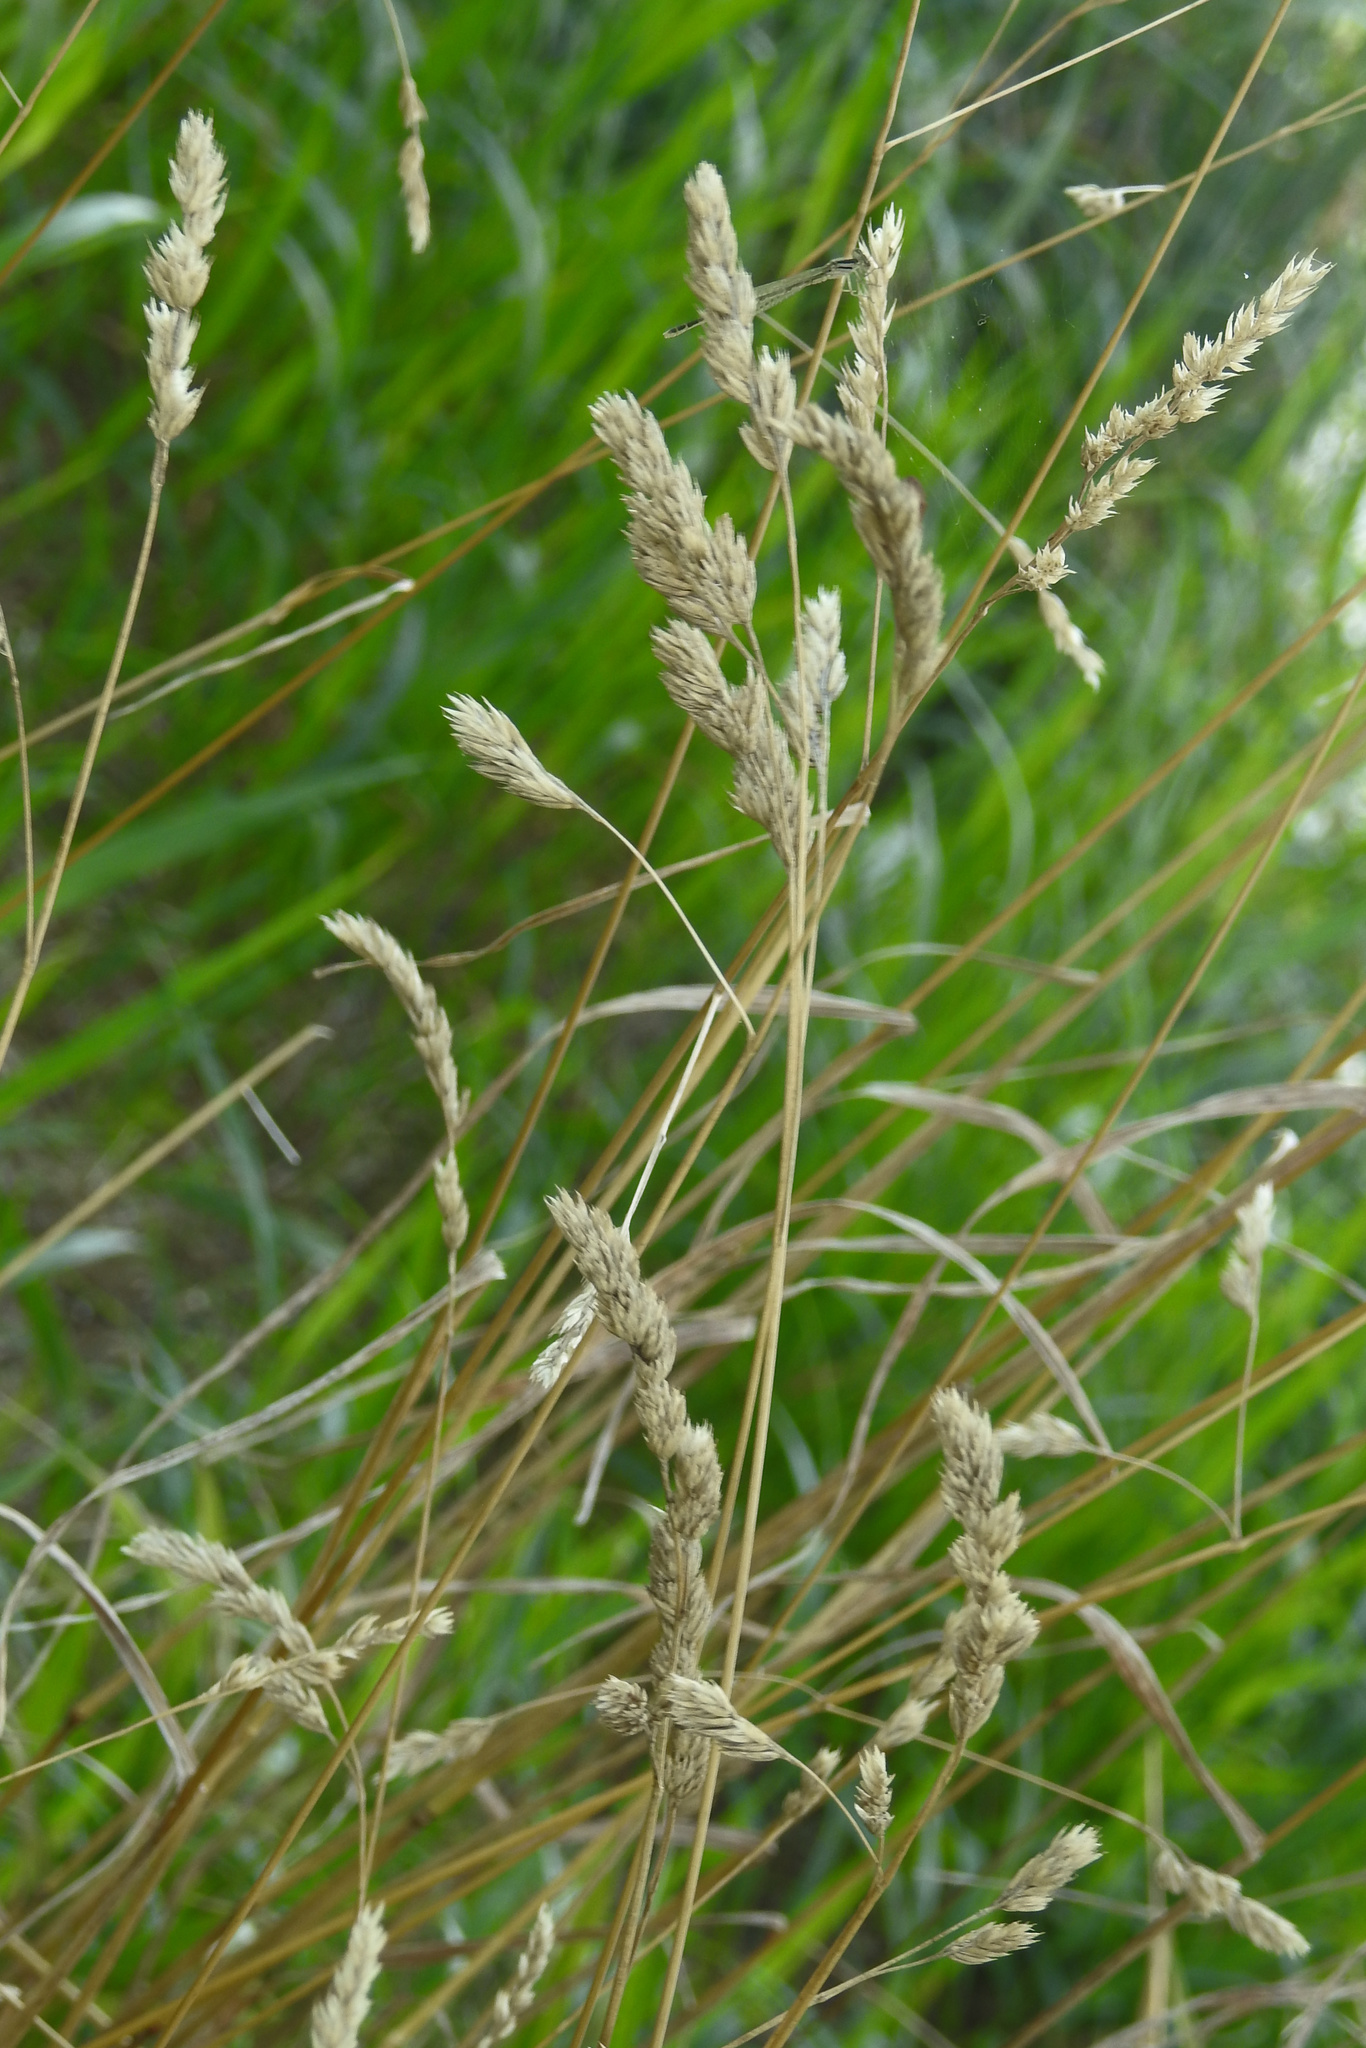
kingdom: Plantae
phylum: Tracheophyta
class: Liliopsida
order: Poales
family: Poaceae
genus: Dactylis
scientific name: Dactylis glomerata
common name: Orchardgrass
